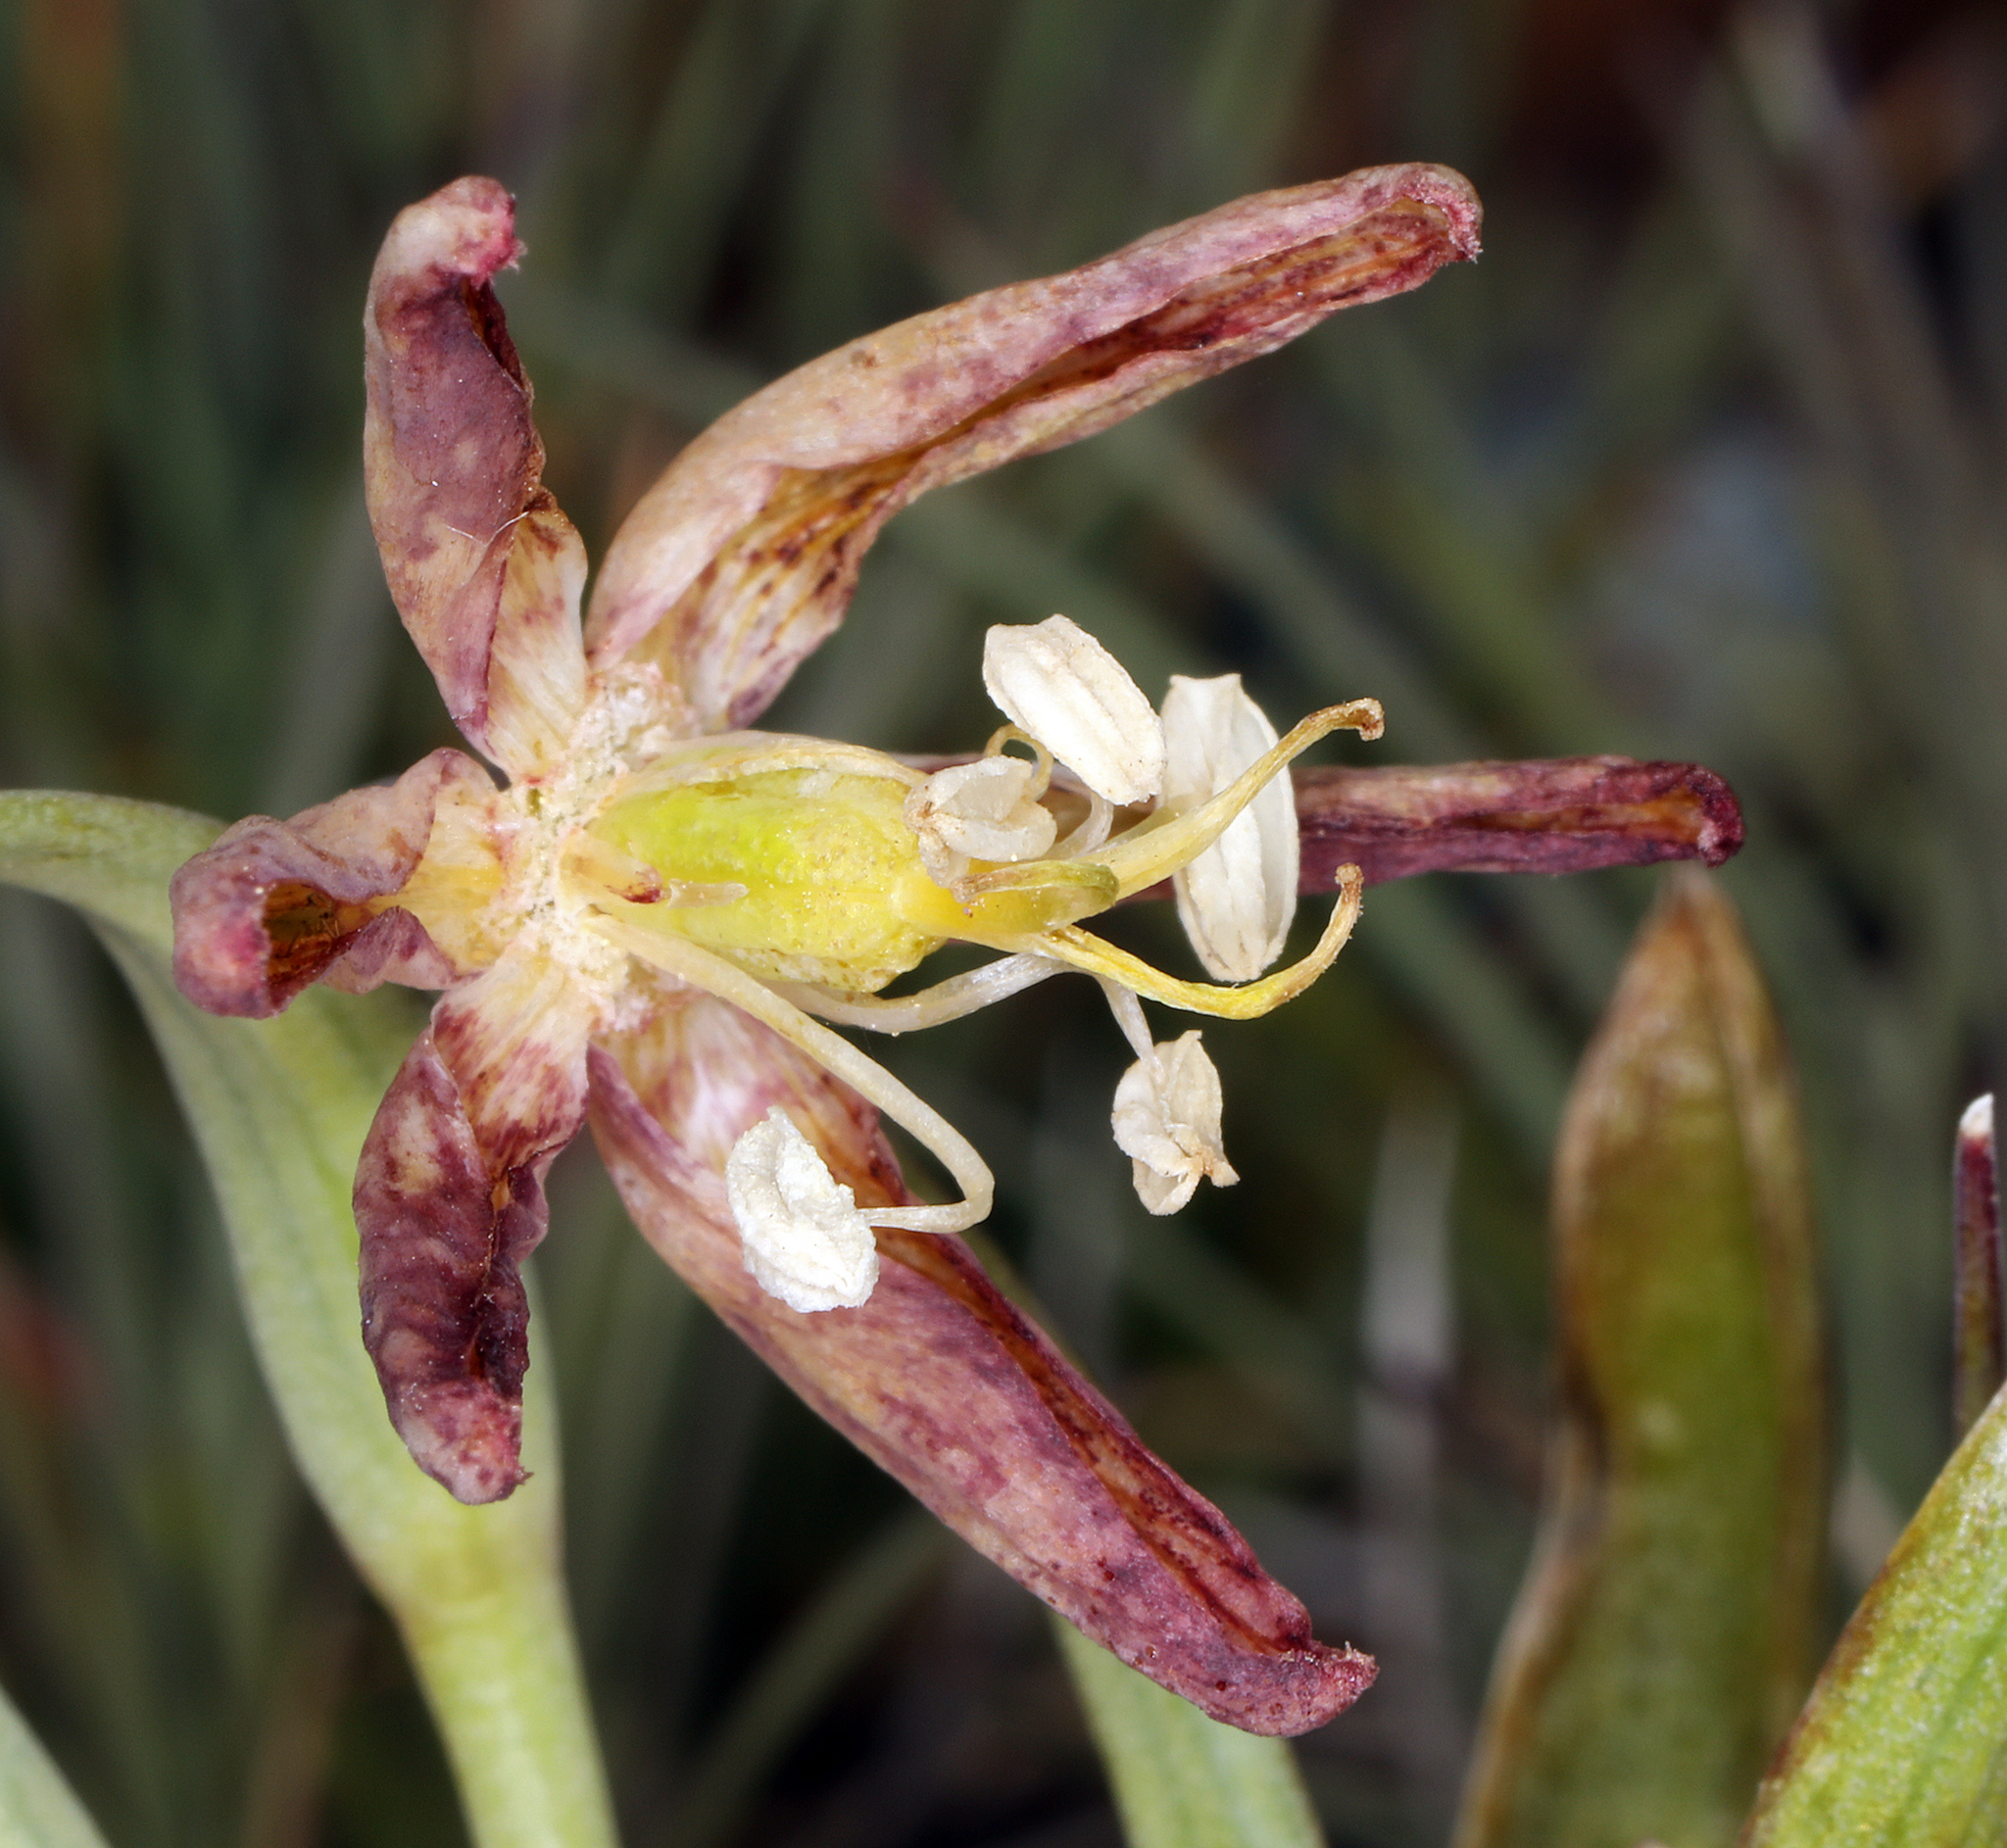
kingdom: Plantae
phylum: Tracheophyta
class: Liliopsida
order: Liliales
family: Liliaceae
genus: Fritillaria
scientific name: Fritillaria atropurpurea
